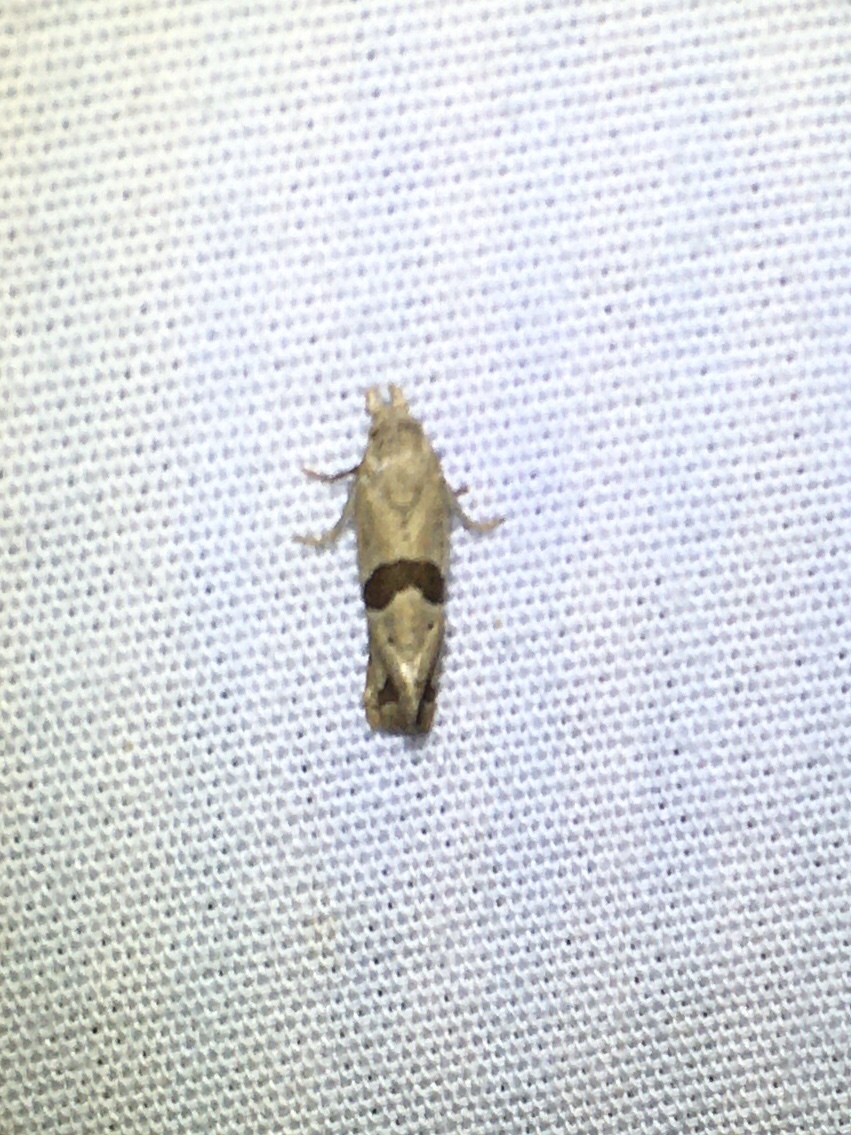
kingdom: Animalia
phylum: Arthropoda
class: Insecta
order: Lepidoptera
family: Tortricidae
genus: Eugnosta
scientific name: Eugnosta sartana
